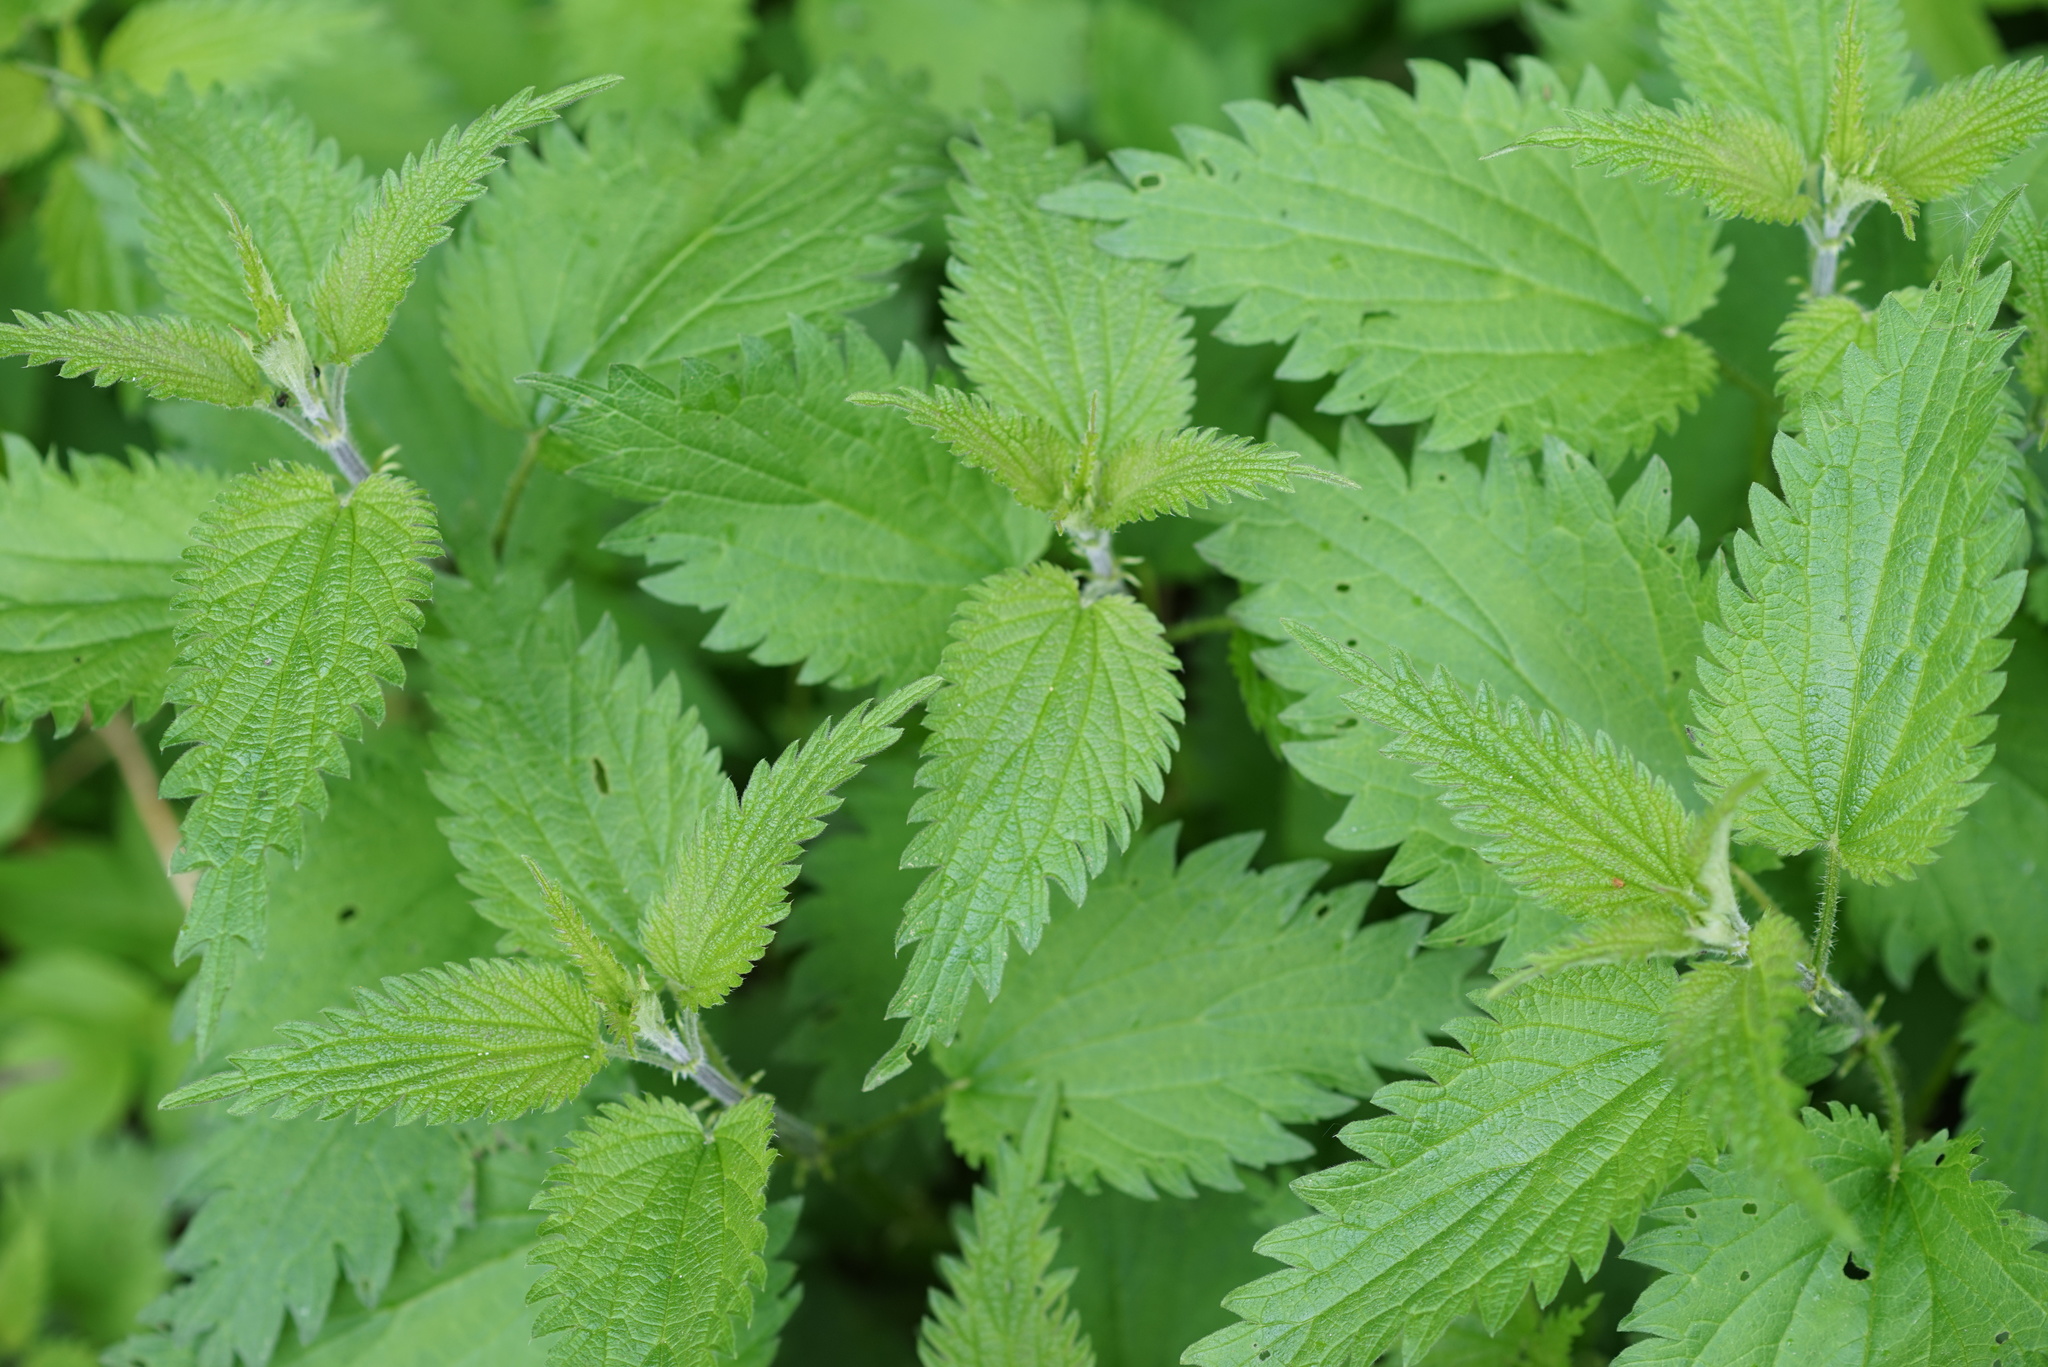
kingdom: Plantae
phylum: Tracheophyta
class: Magnoliopsida
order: Rosales
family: Urticaceae
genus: Urtica
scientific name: Urtica dioica
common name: Common nettle
